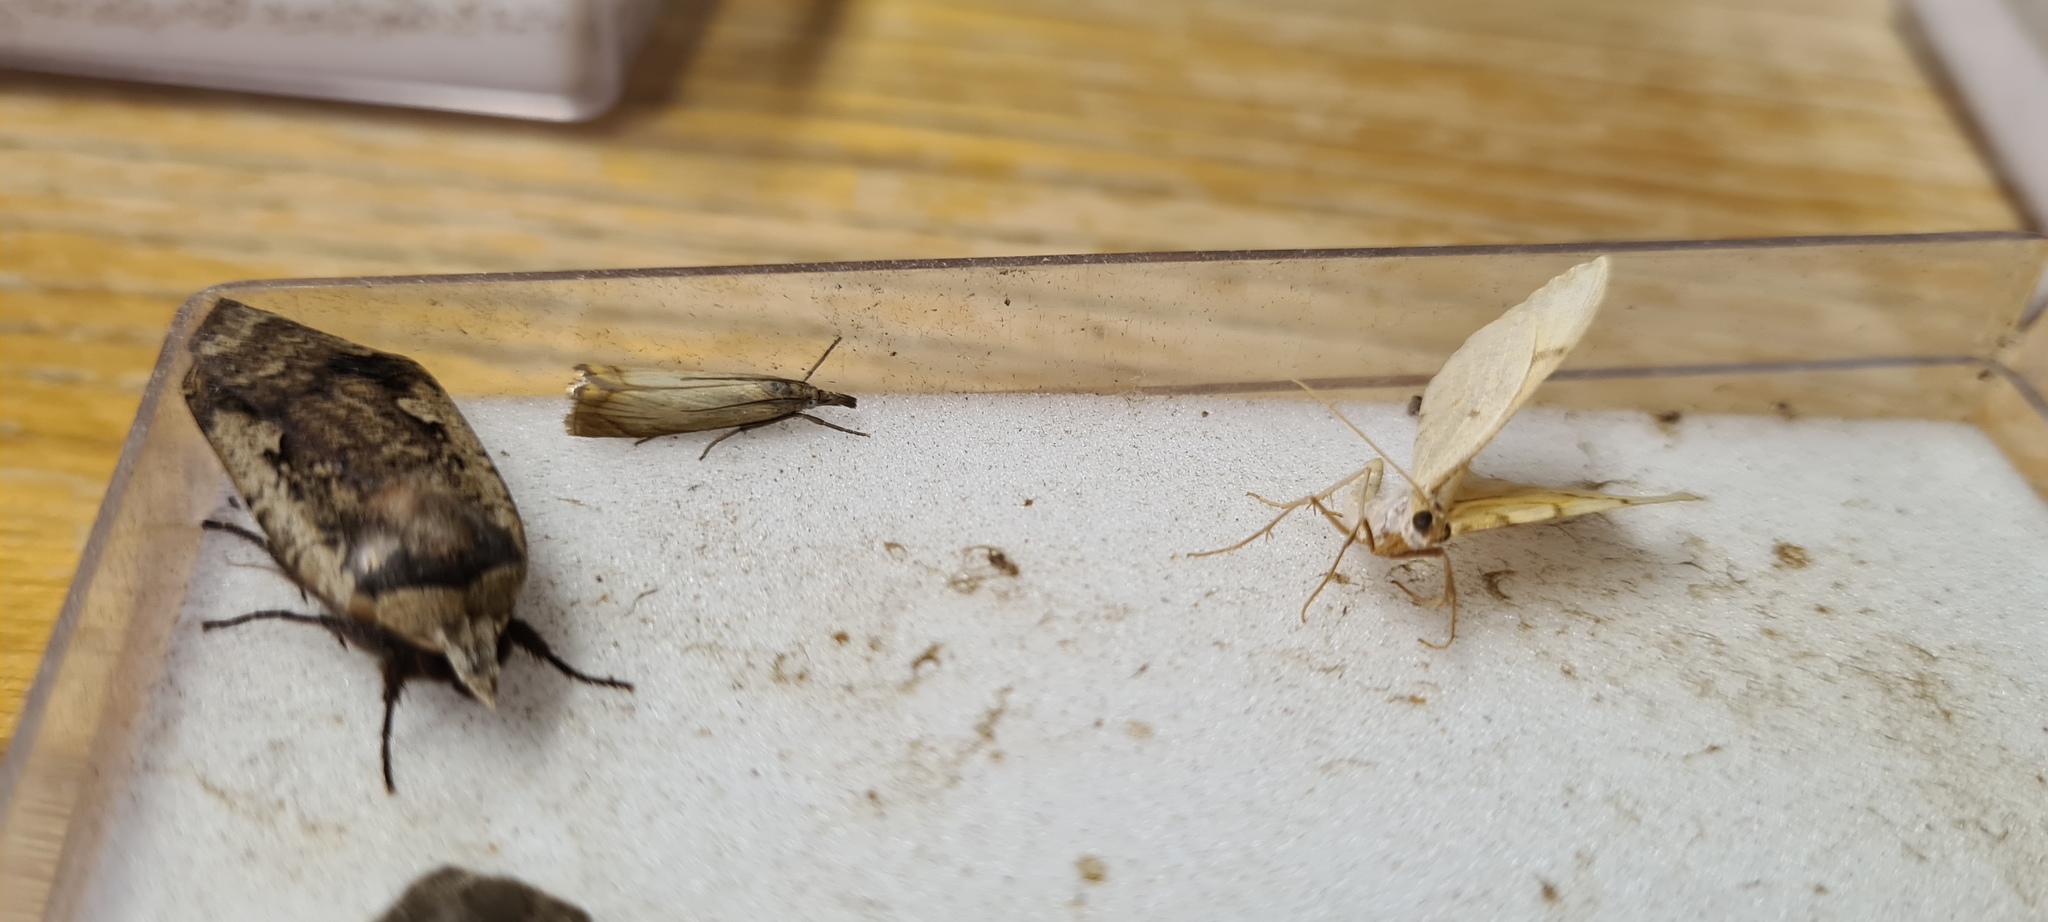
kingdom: Animalia
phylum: Arthropoda
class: Insecta
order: Lepidoptera
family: Crambidae
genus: Chrysoteuchia
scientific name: Chrysoteuchia culmella
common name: Garden grass-veneer
